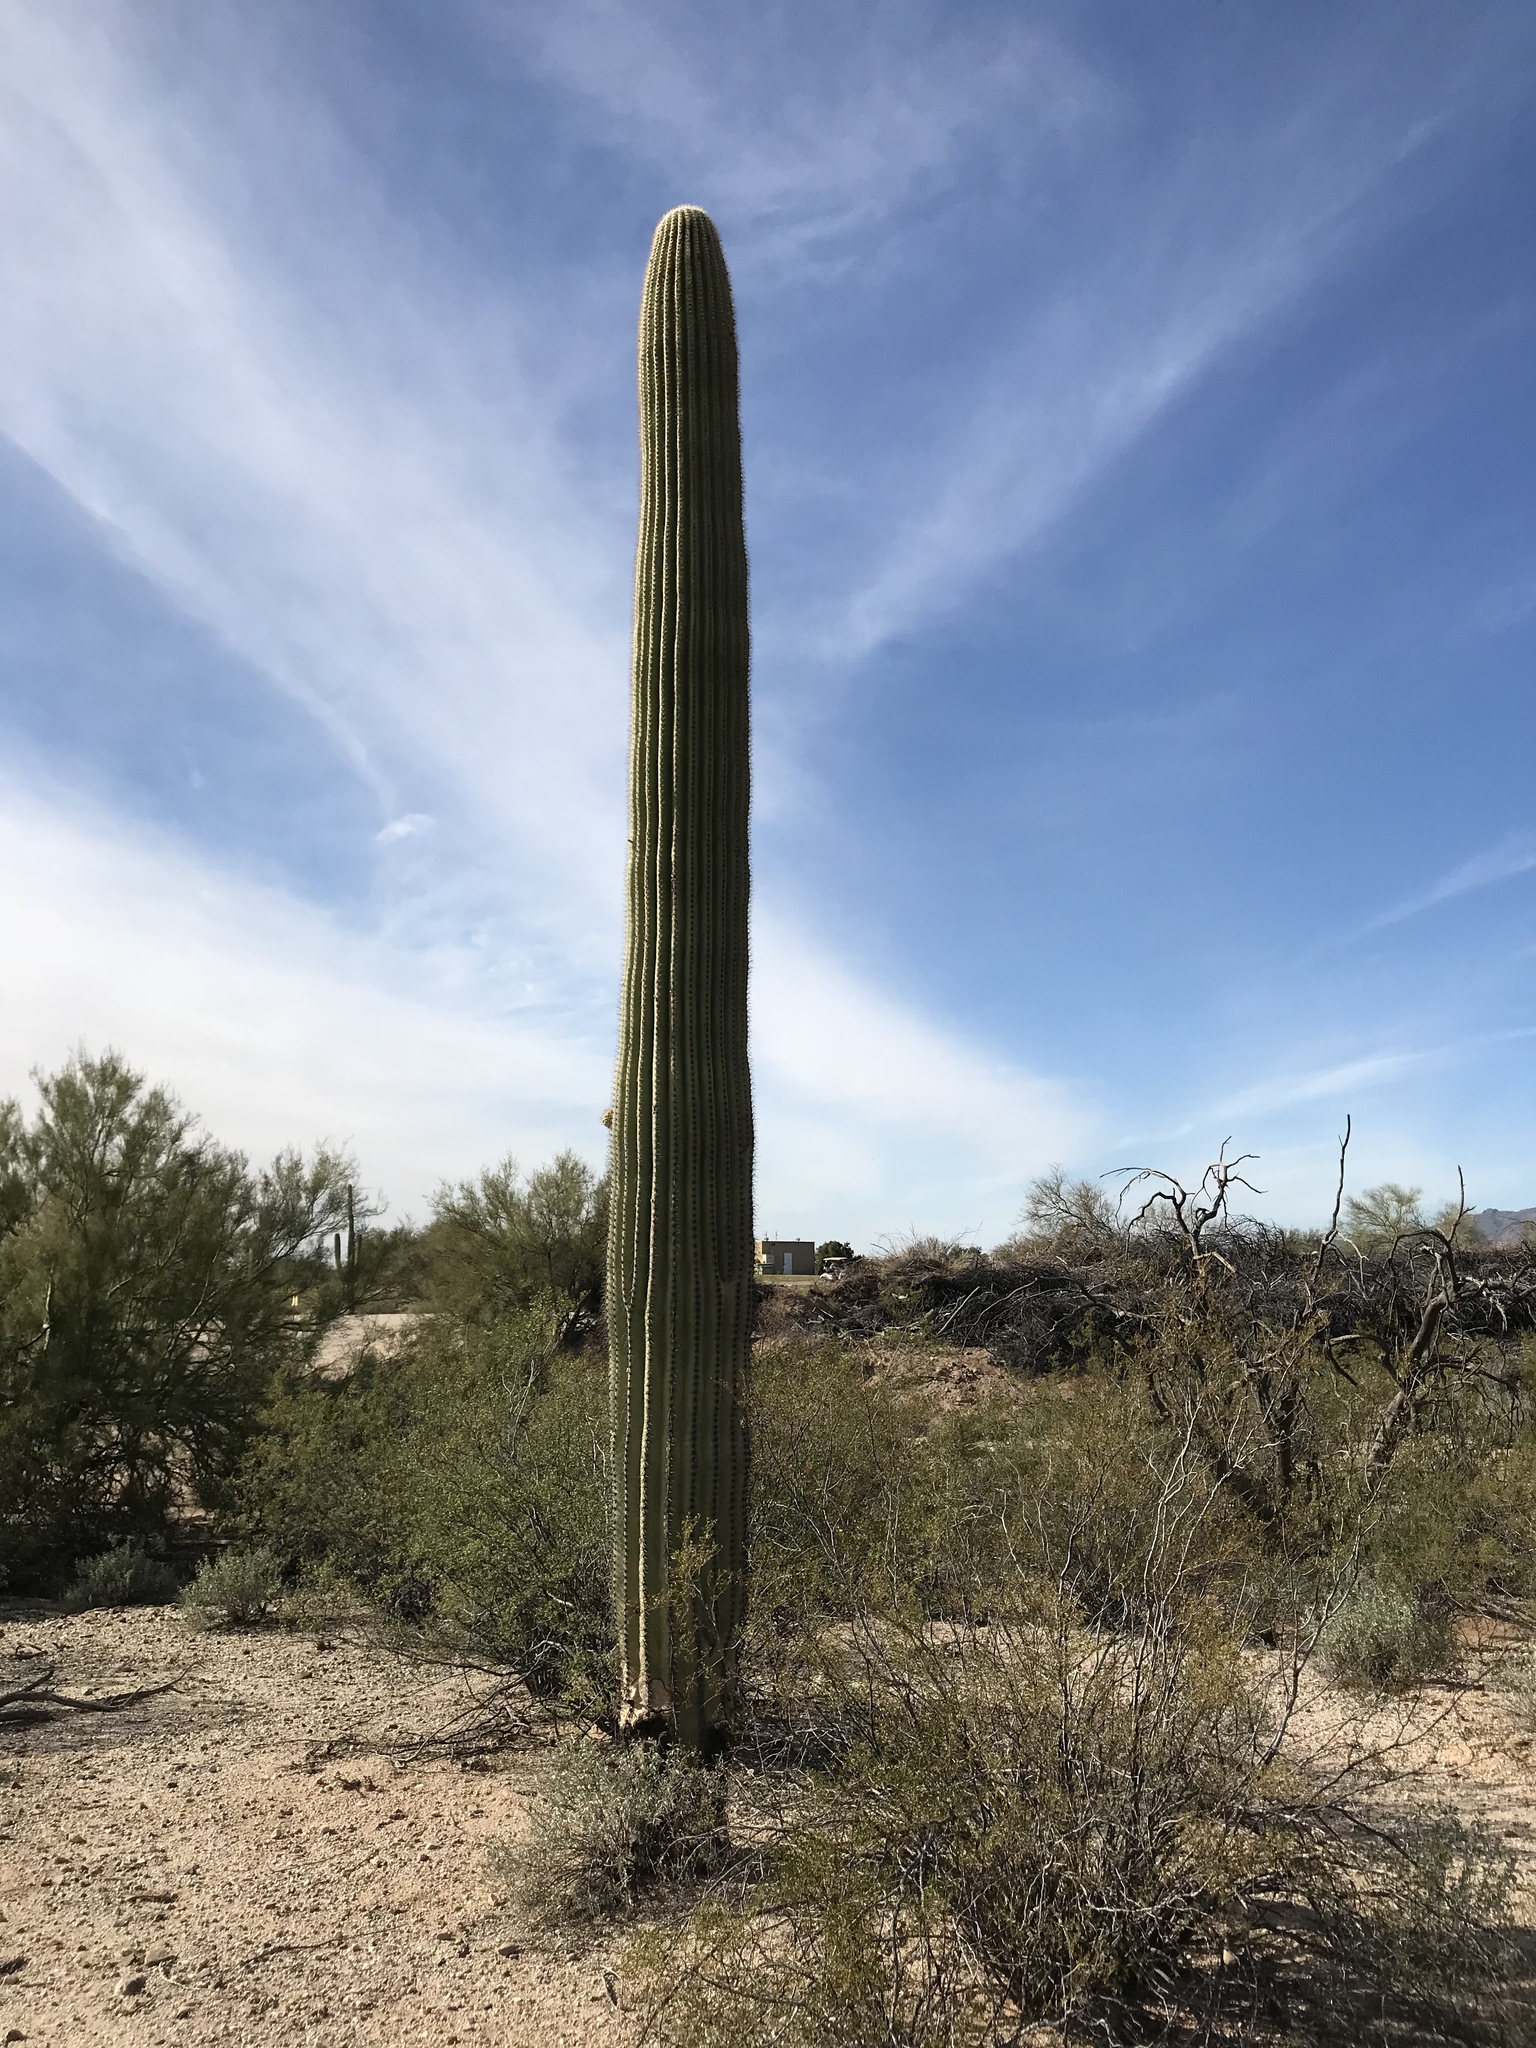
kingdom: Plantae
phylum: Tracheophyta
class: Magnoliopsida
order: Caryophyllales
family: Cactaceae
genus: Carnegiea
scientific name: Carnegiea gigantea
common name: Saguaro
